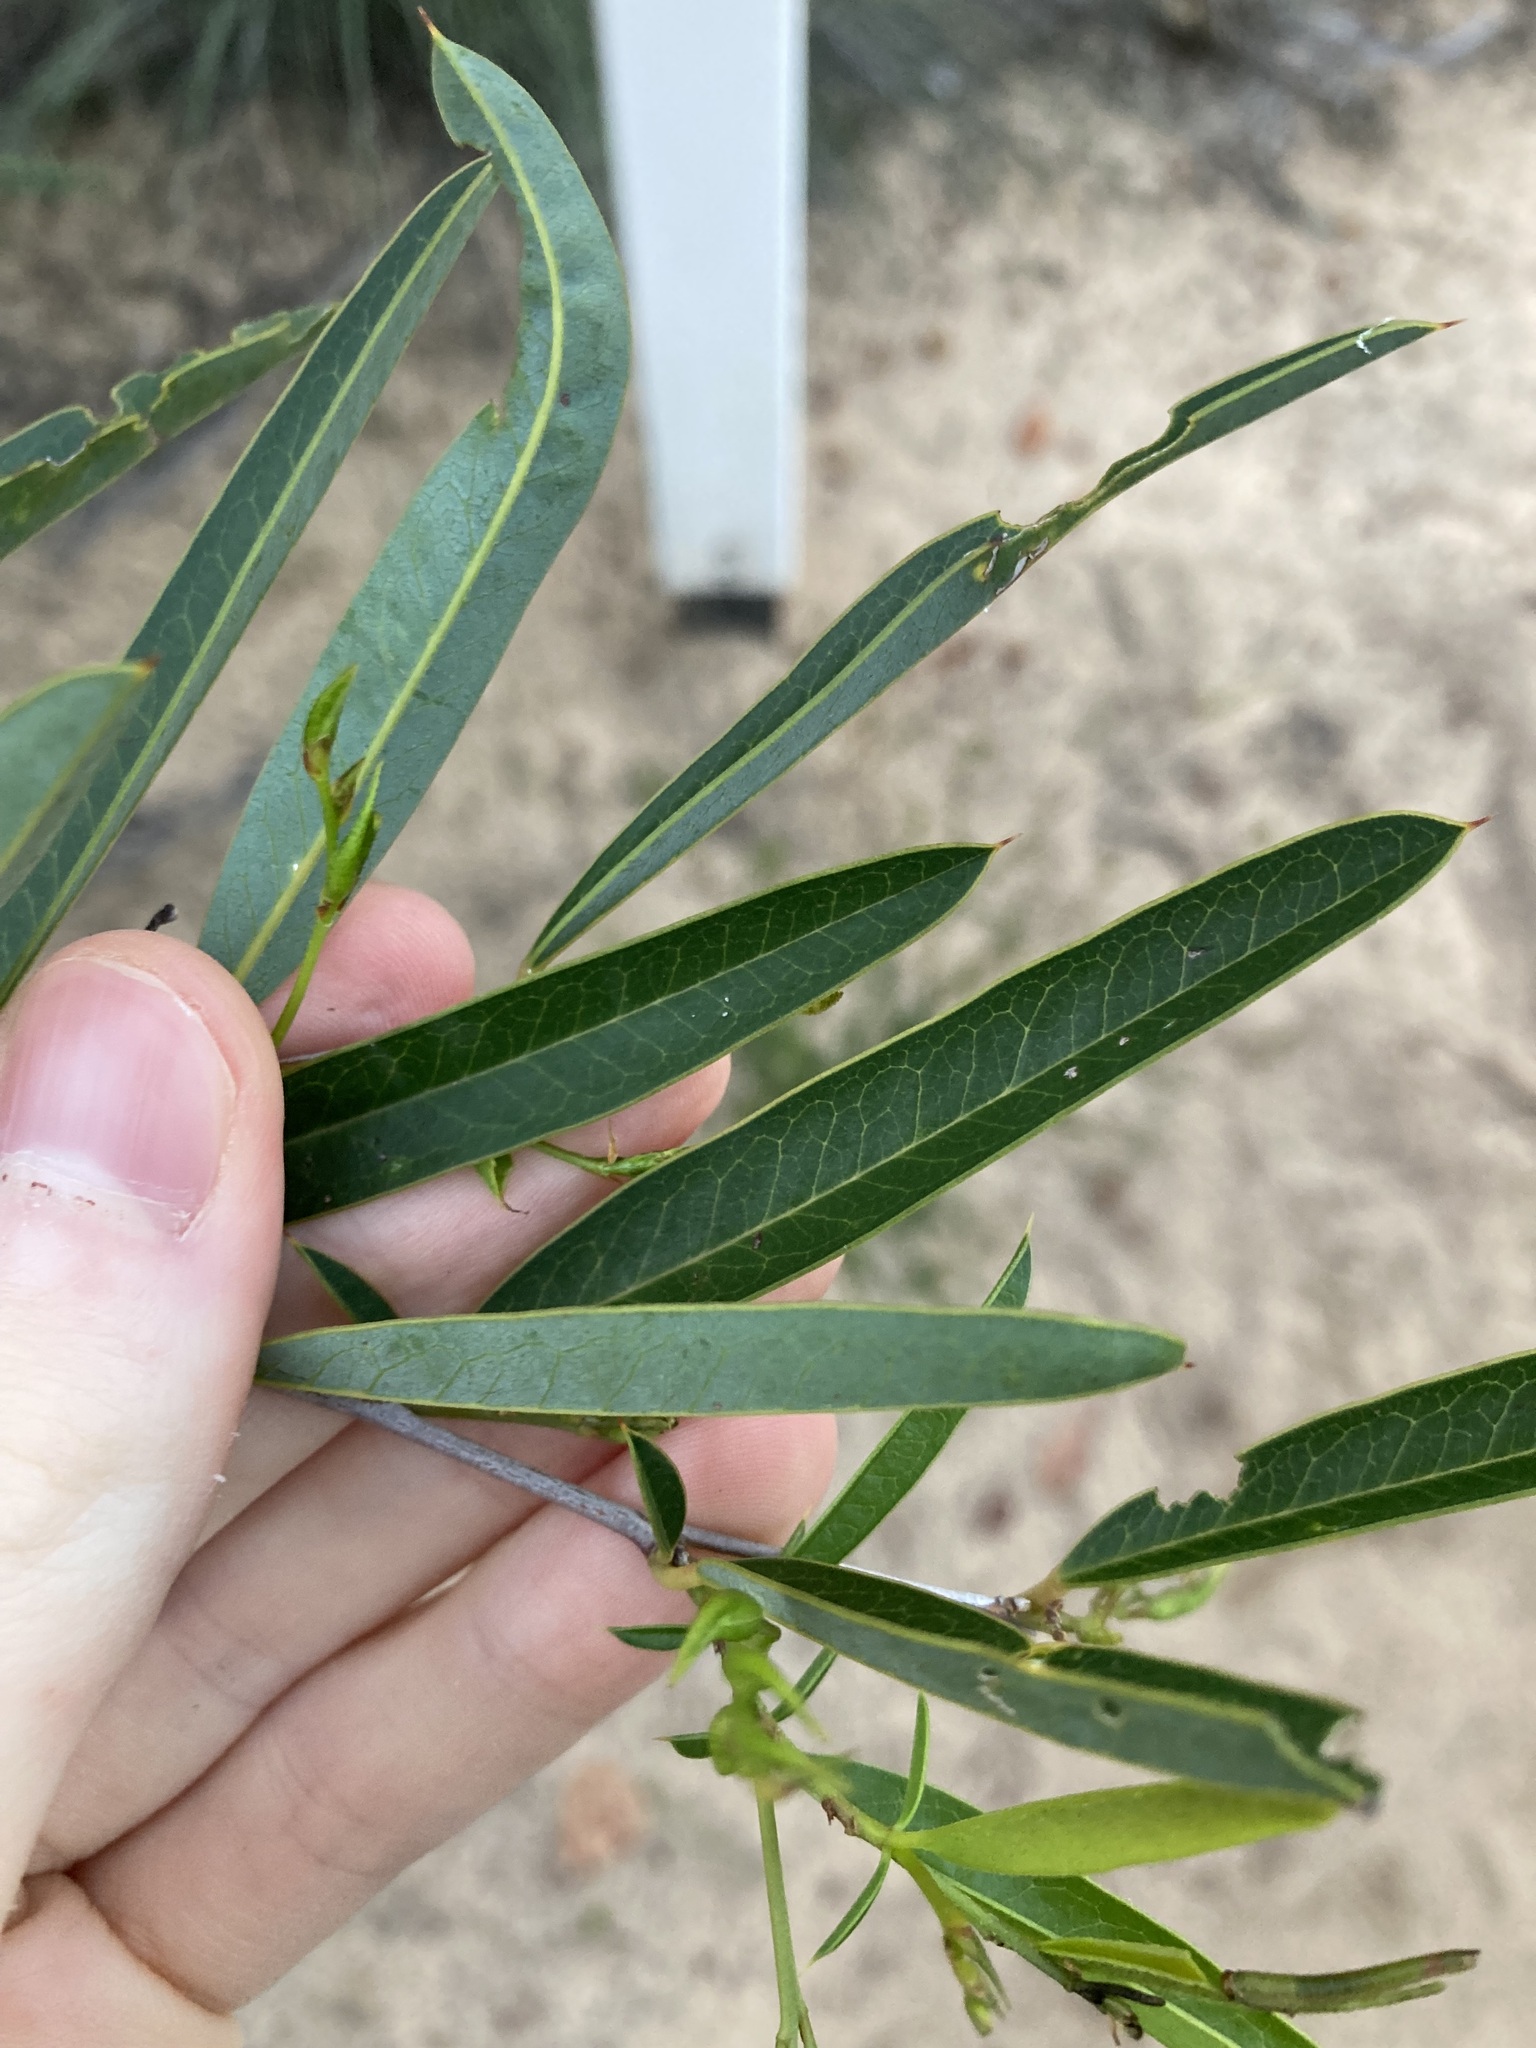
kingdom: Plantae
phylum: Tracheophyta
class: Magnoliopsida
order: Fabales
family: Fabaceae
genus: Labichea
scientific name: Labichea lanceolata
